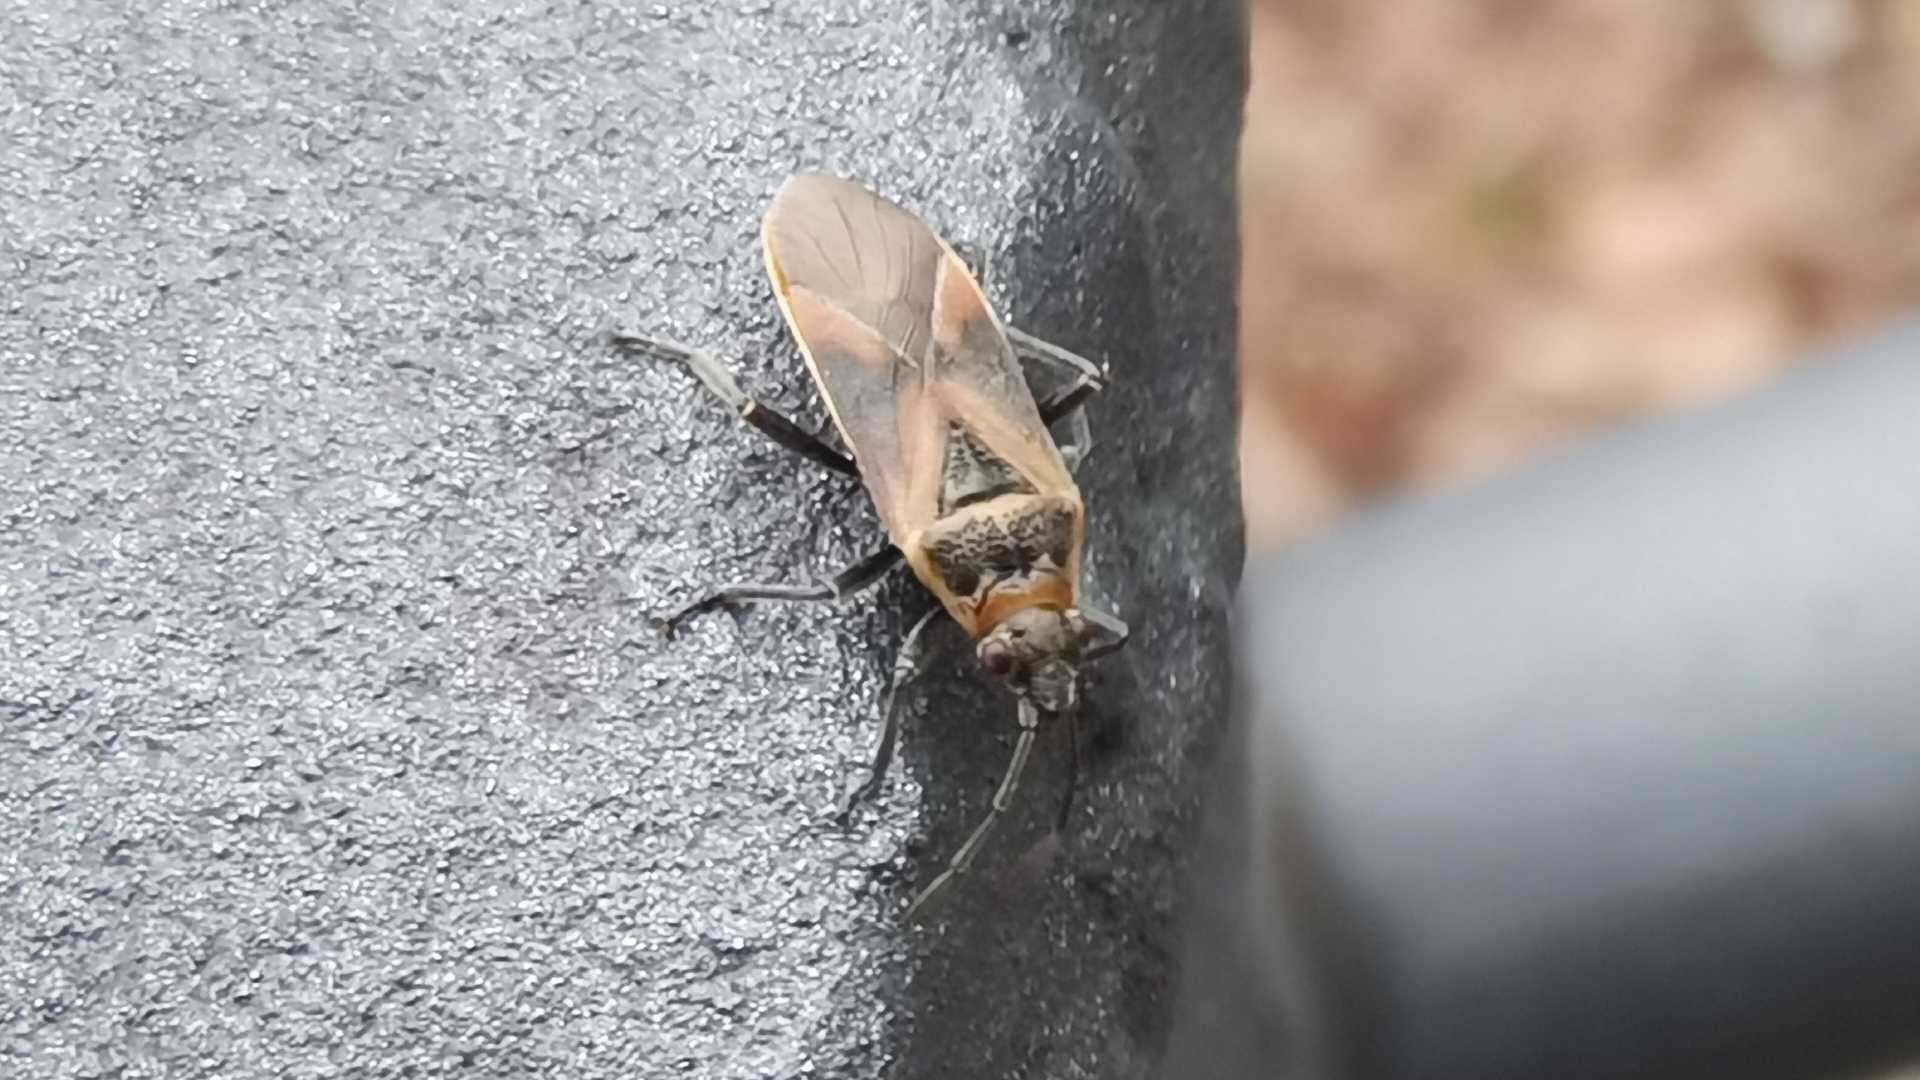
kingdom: Animalia
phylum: Arthropoda
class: Insecta
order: Hemiptera
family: Lygaeidae
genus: Arocatus
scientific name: Arocatus roeselii
